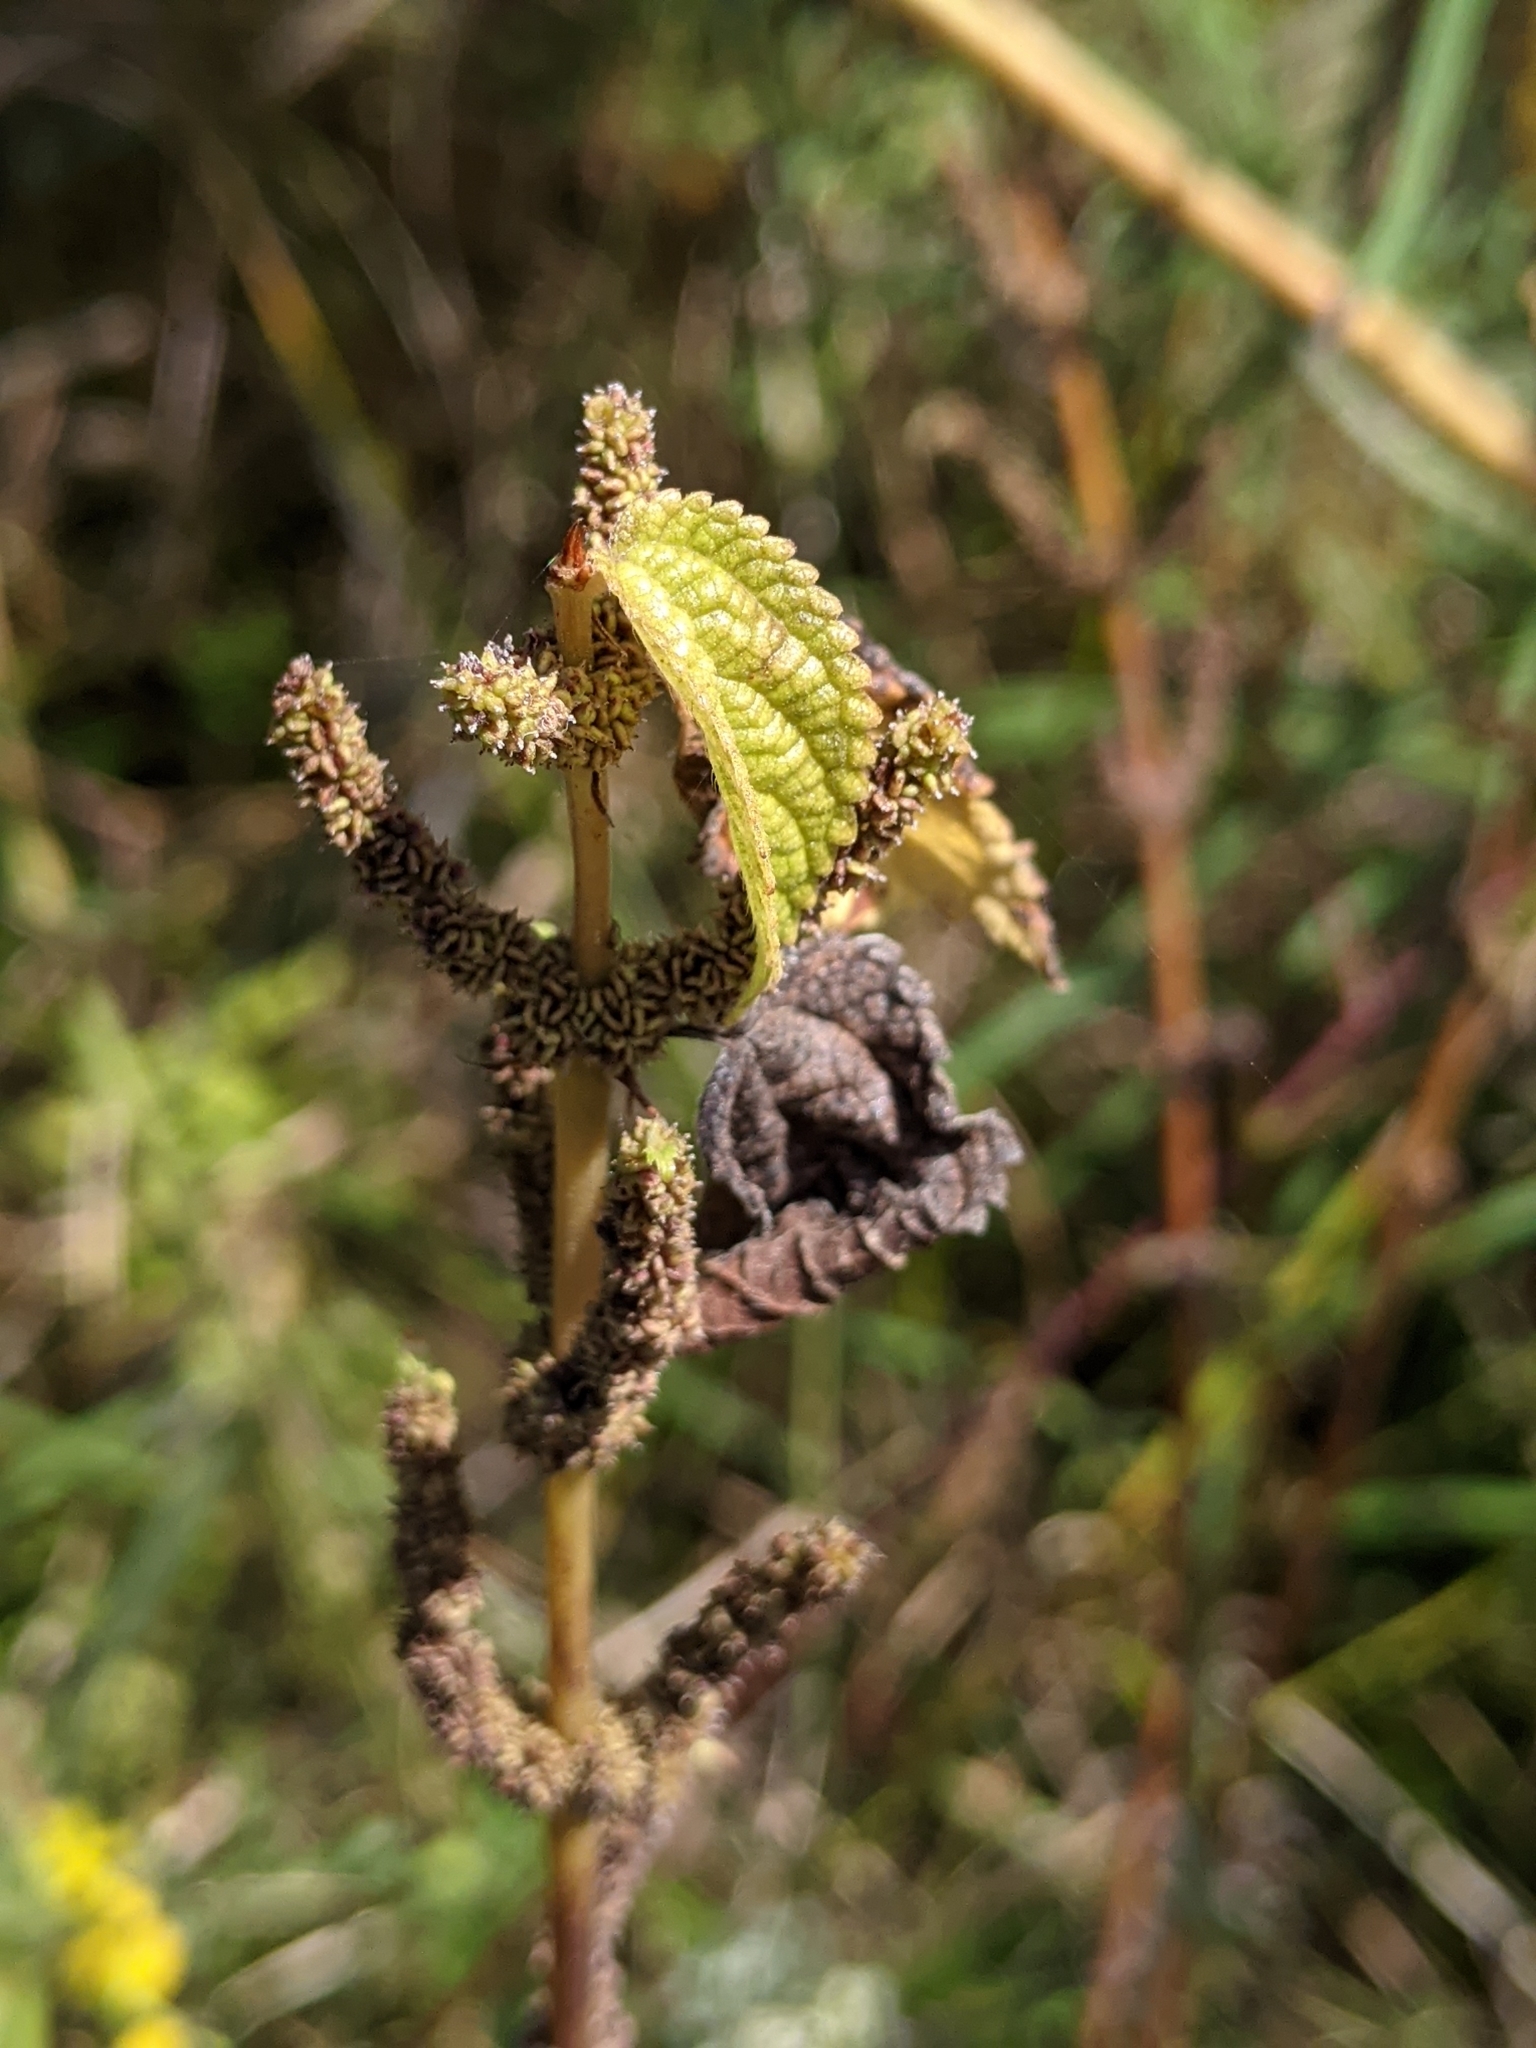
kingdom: Plantae
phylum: Tracheophyta
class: Magnoliopsida
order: Rosales
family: Urticaceae
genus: Boehmeria
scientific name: Boehmeria cylindrica
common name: Bog-hemp
